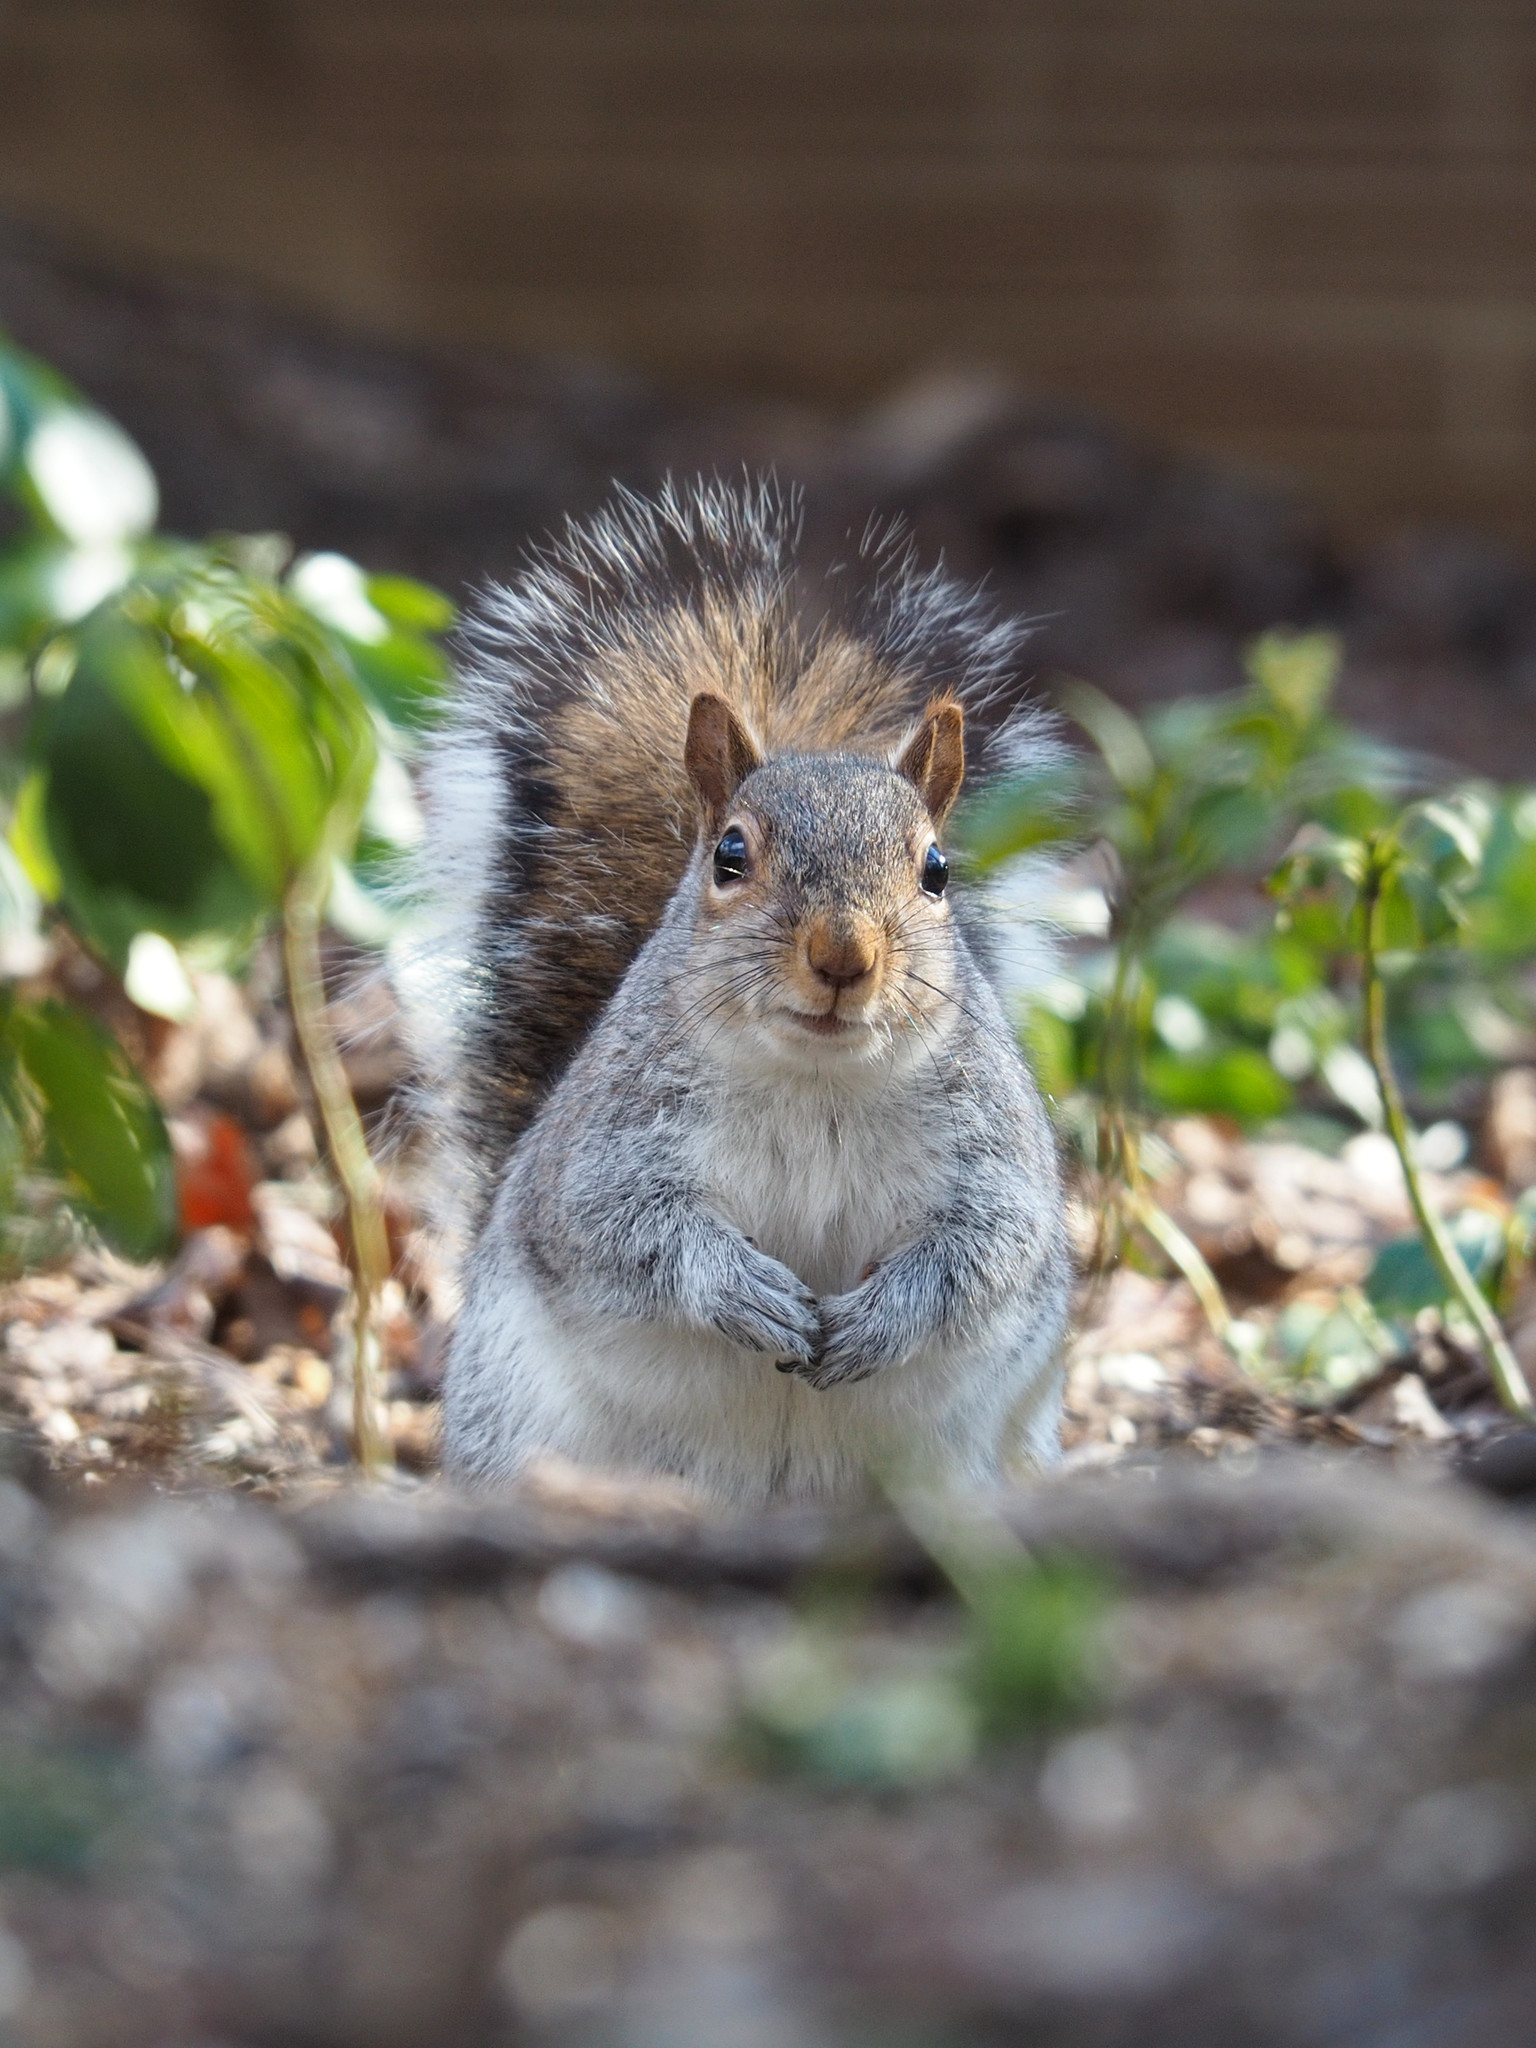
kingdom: Animalia
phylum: Chordata
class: Mammalia
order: Rodentia
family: Sciuridae
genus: Sciurus
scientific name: Sciurus carolinensis
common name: Eastern gray squirrel
